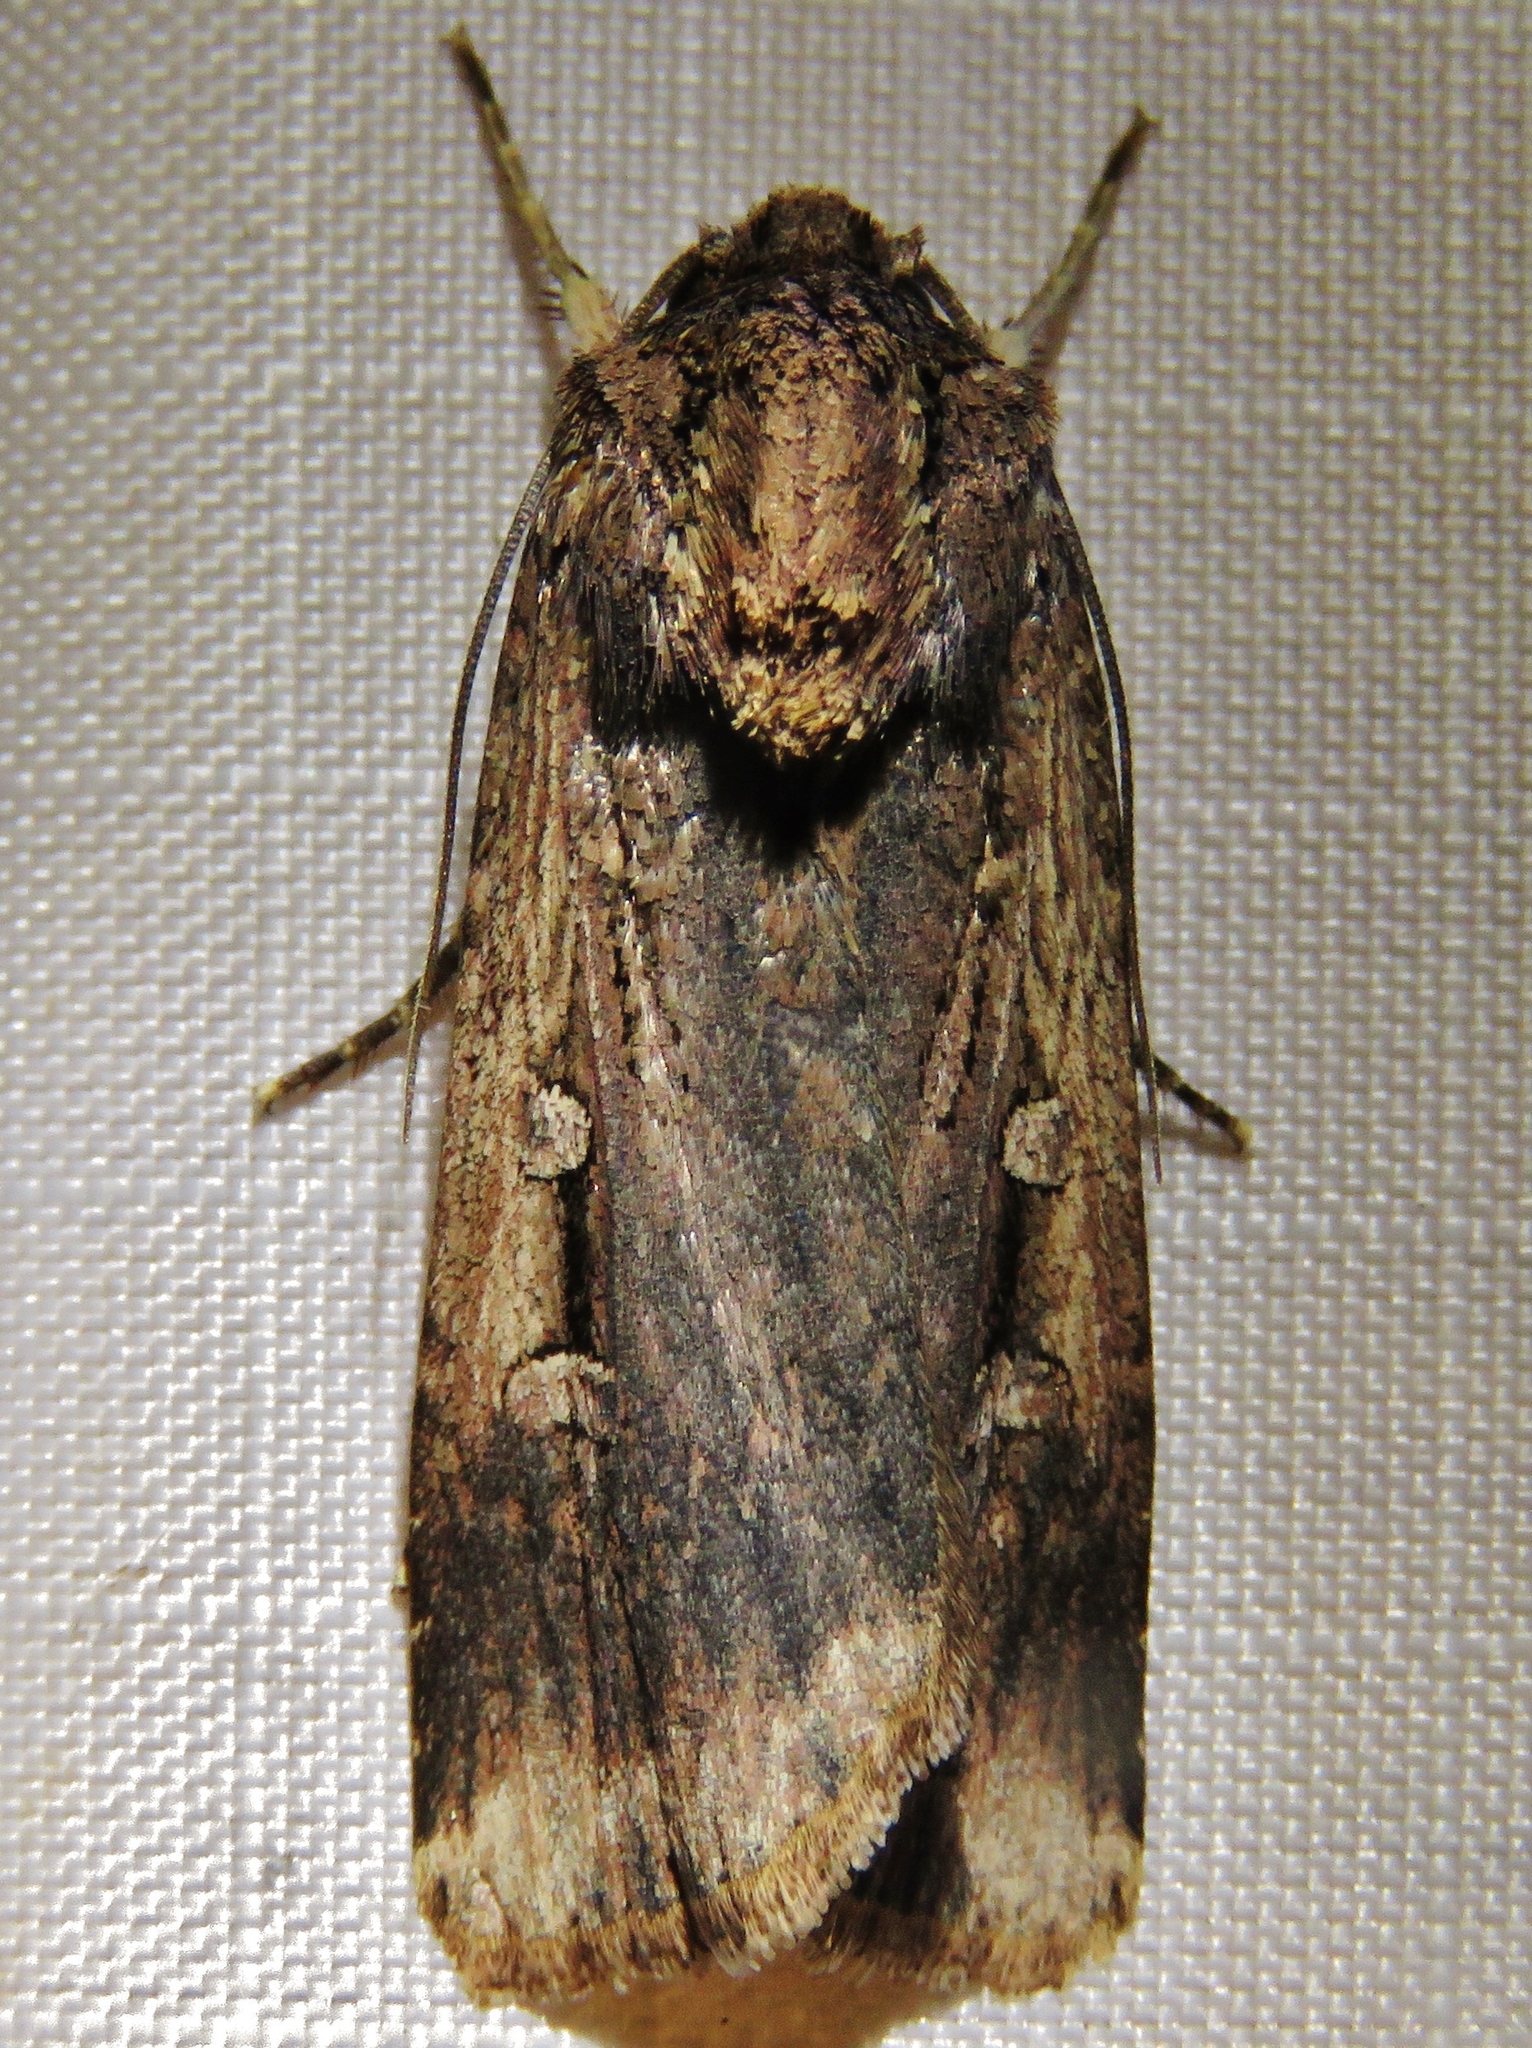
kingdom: Animalia
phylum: Arthropoda
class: Insecta
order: Lepidoptera
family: Noctuidae
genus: Feltia
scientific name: Feltia subterranea
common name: Granulate cutworm
